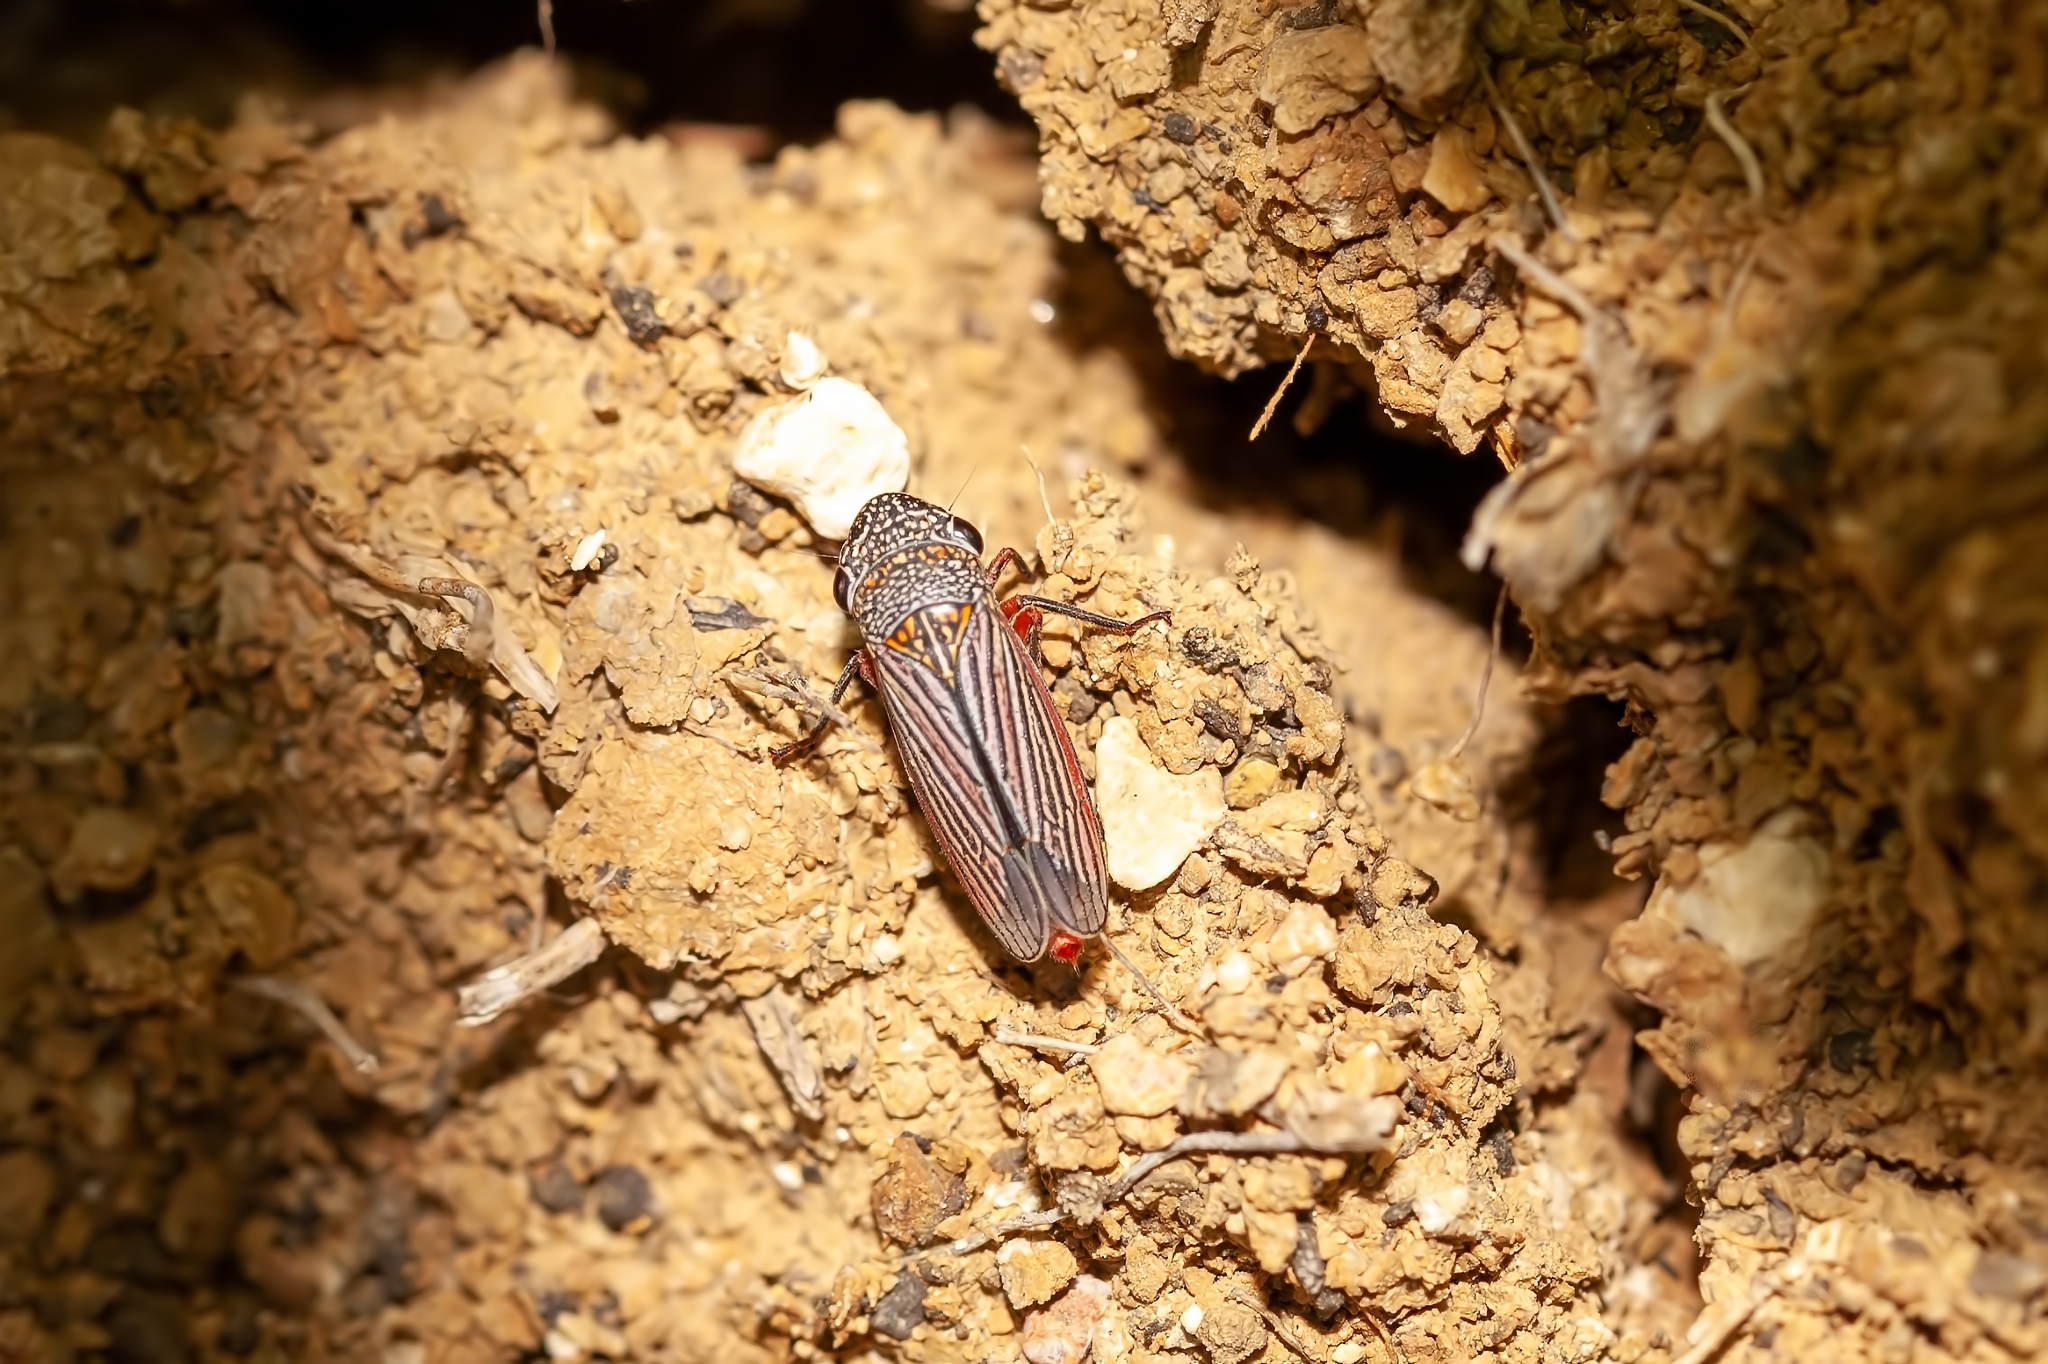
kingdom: Animalia
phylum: Arthropoda
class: Insecta
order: Hemiptera
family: Cicadellidae
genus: Cuerna
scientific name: Cuerna costalis
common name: Lateral-lined sharpshooter
